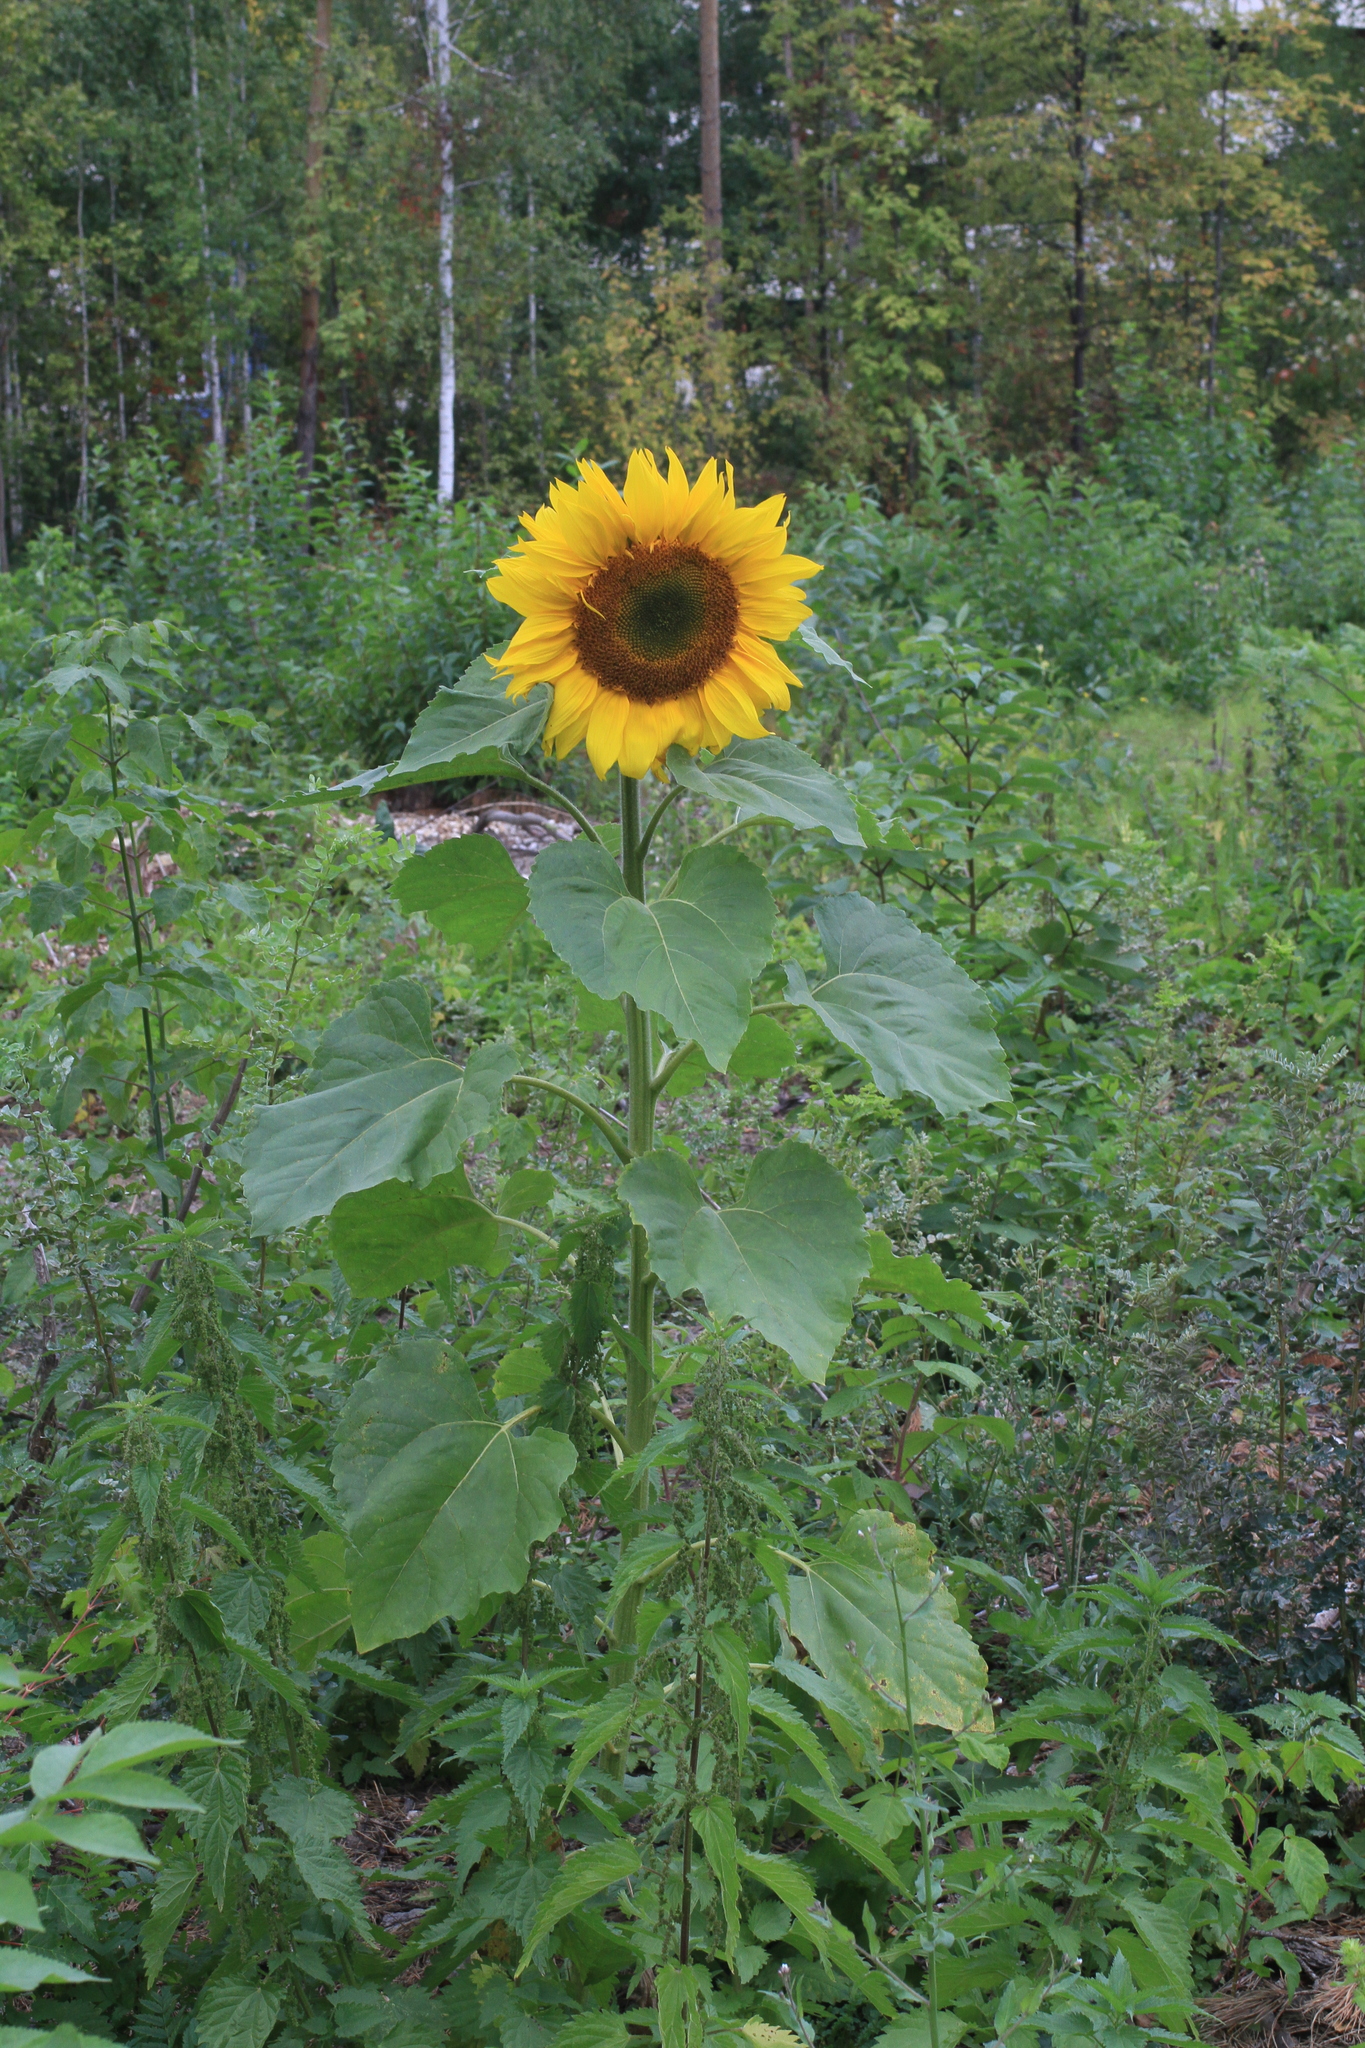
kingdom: Plantae
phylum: Tracheophyta
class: Magnoliopsida
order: Asterales
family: Asteraceae
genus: Helianthus
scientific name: Helianthus annuus
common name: Sunflower
